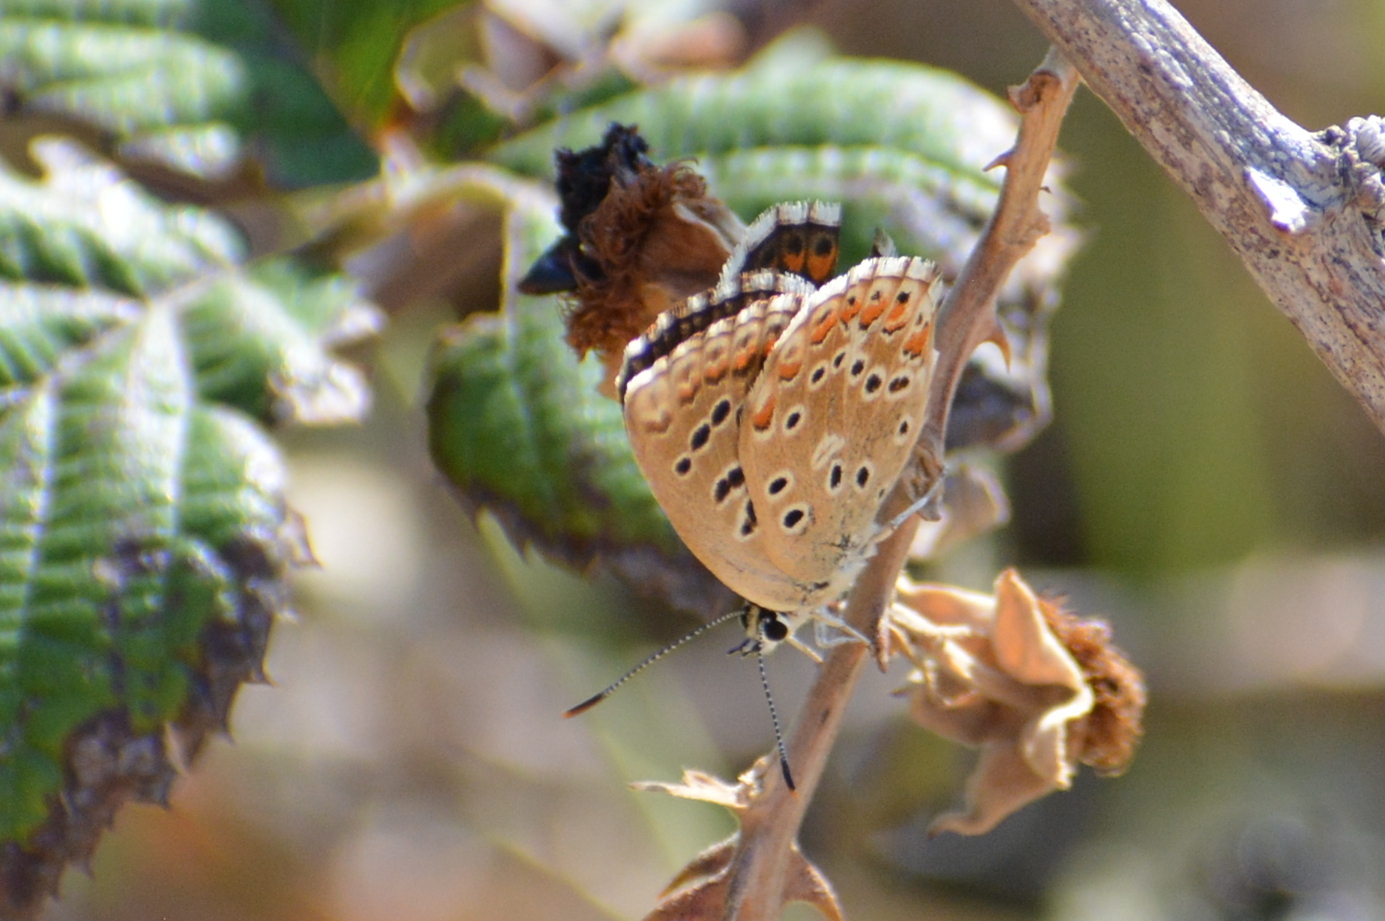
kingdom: Animalia
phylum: Arthropoda
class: Insecta
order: Lepidoptera
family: Lycaenidae
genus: Lysandra
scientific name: Lysandra bellargus
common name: Adonis blue
